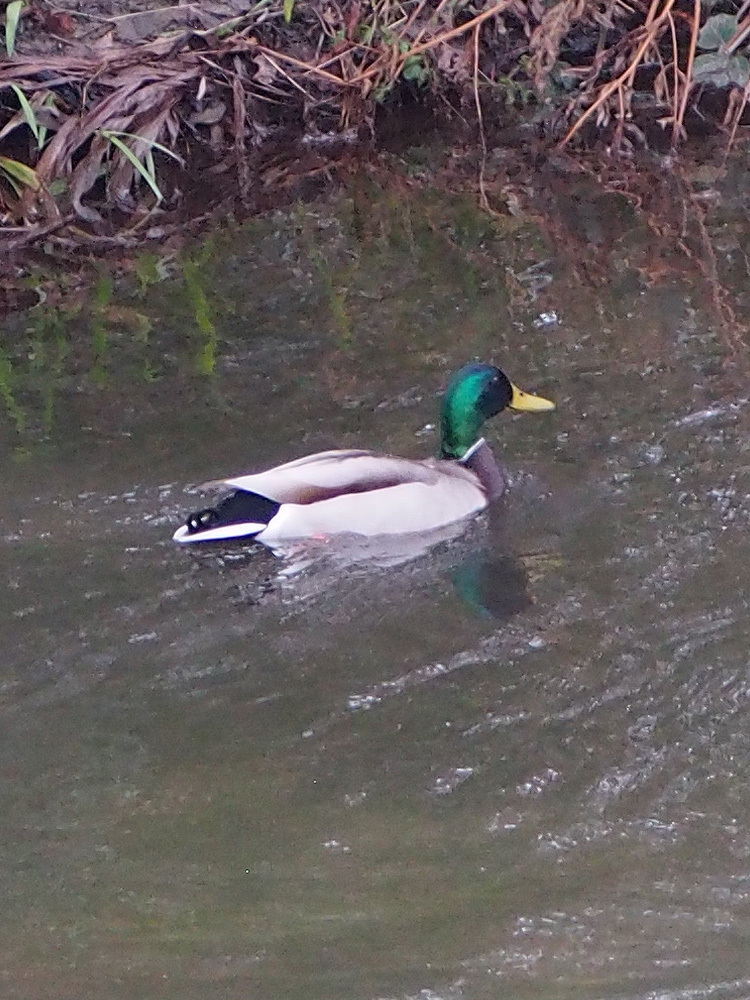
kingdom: Animalia
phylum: Chordata
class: Aves
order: Anseriformes
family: Anatidae
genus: Anas
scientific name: Anas platyrhynchos
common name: Mallard
